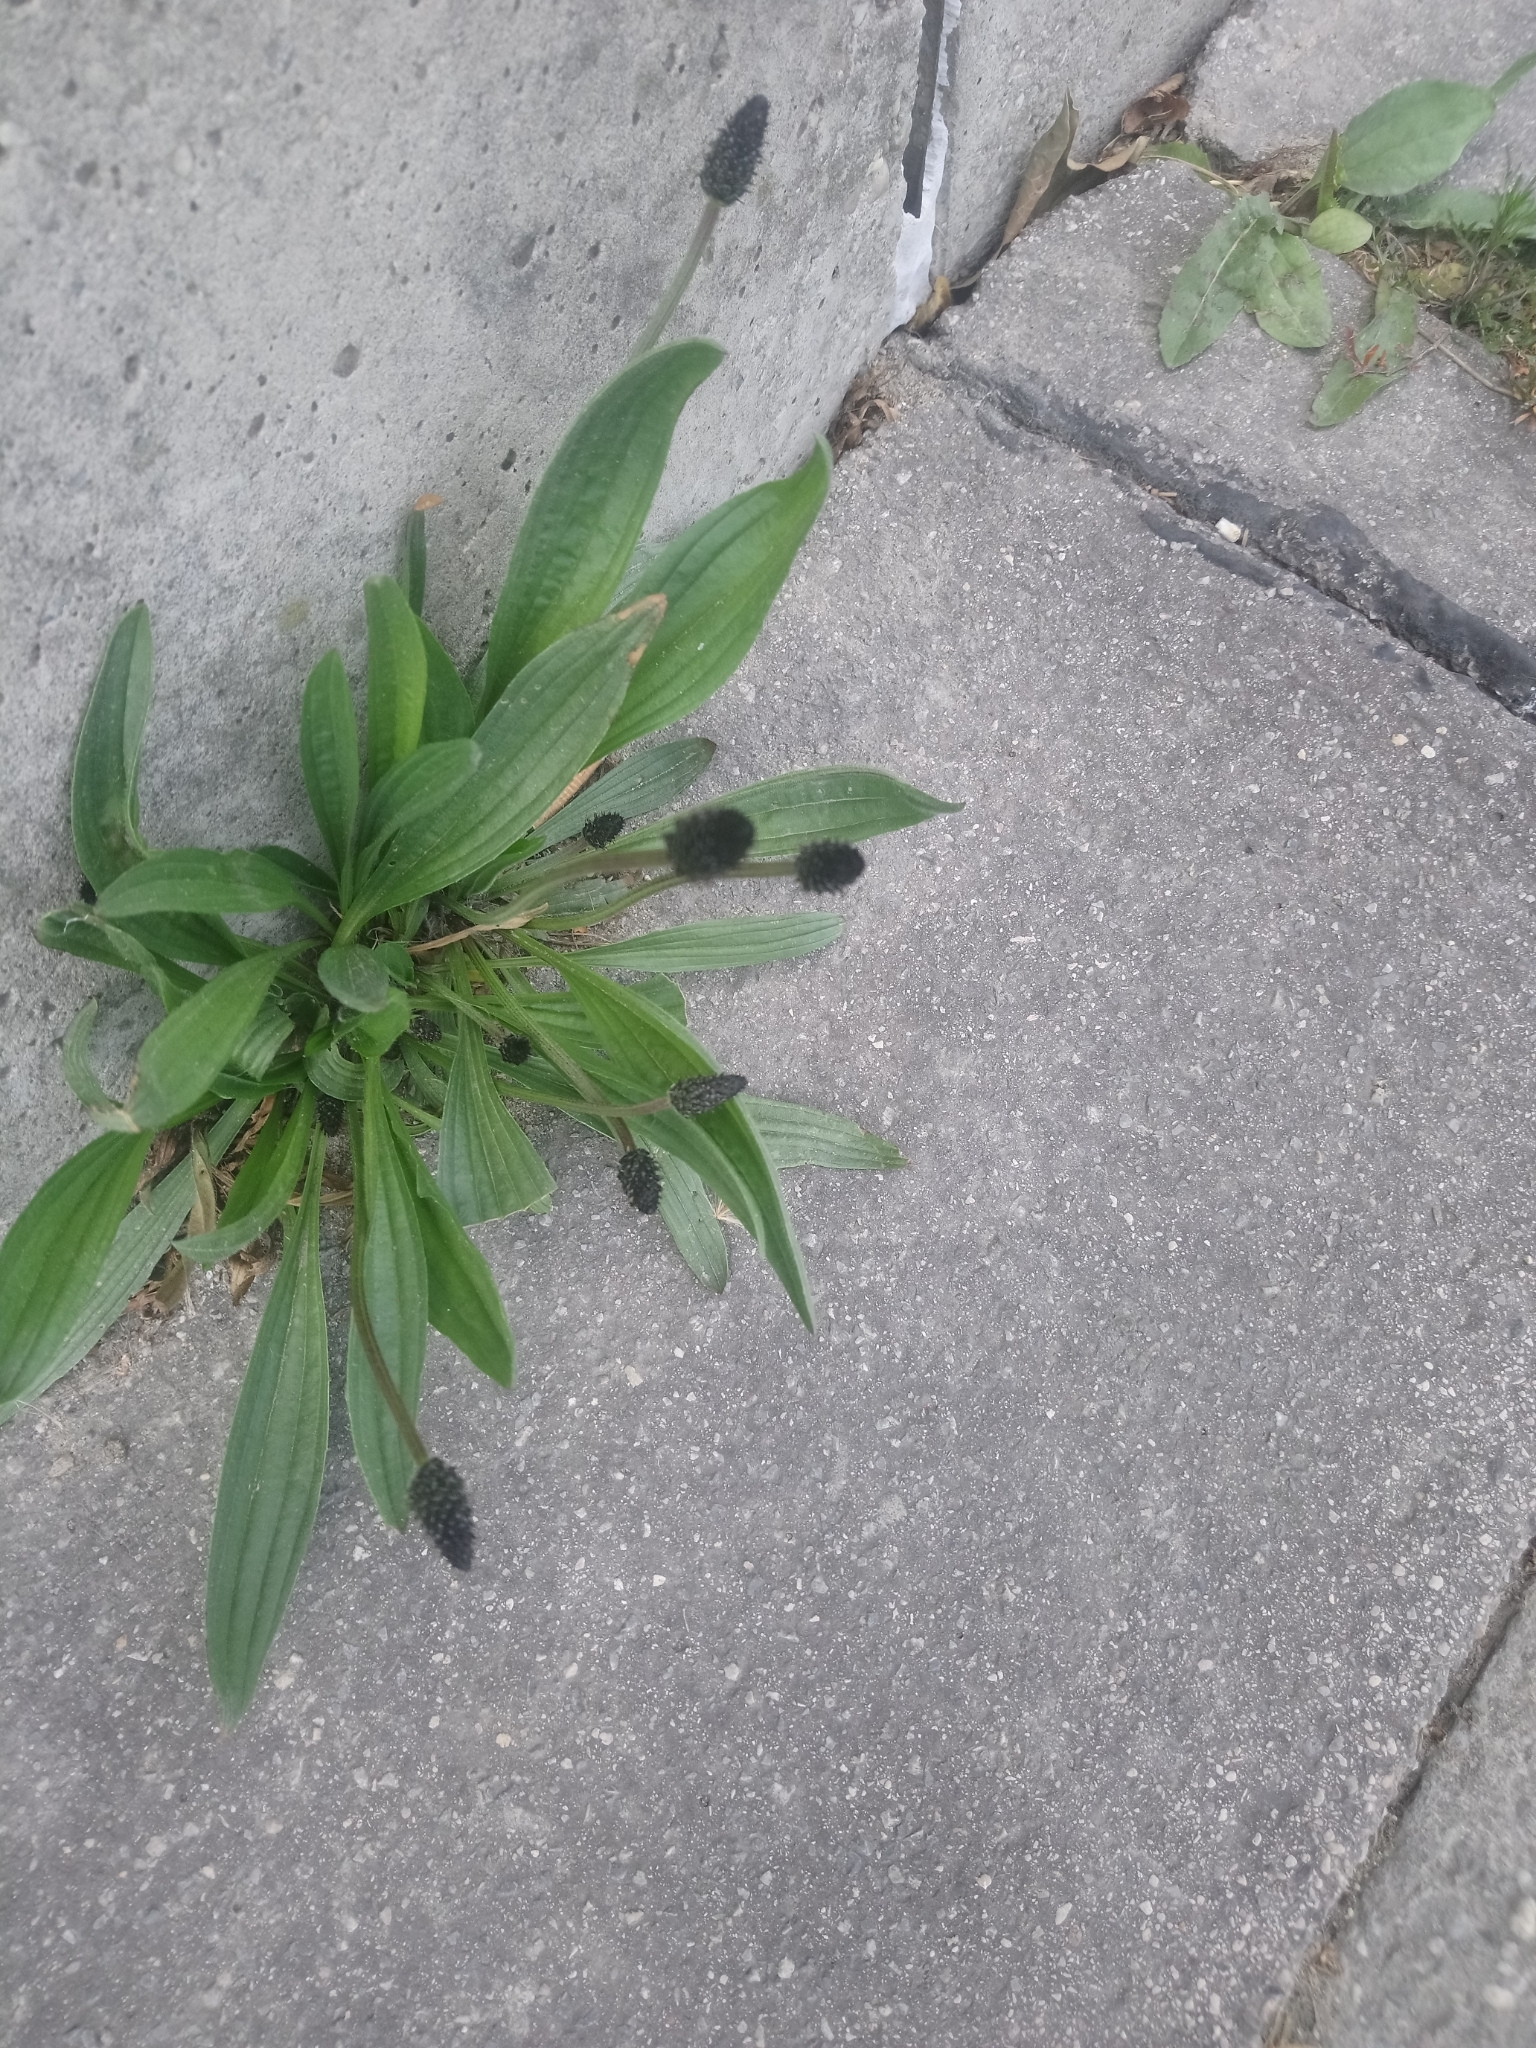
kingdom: Plantae
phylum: Tracheophyta
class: Magnoliopsida
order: Lamiales
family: Plantaginaceae
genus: Plantago
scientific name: Plantago lanceolata
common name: Ribwort plantain
